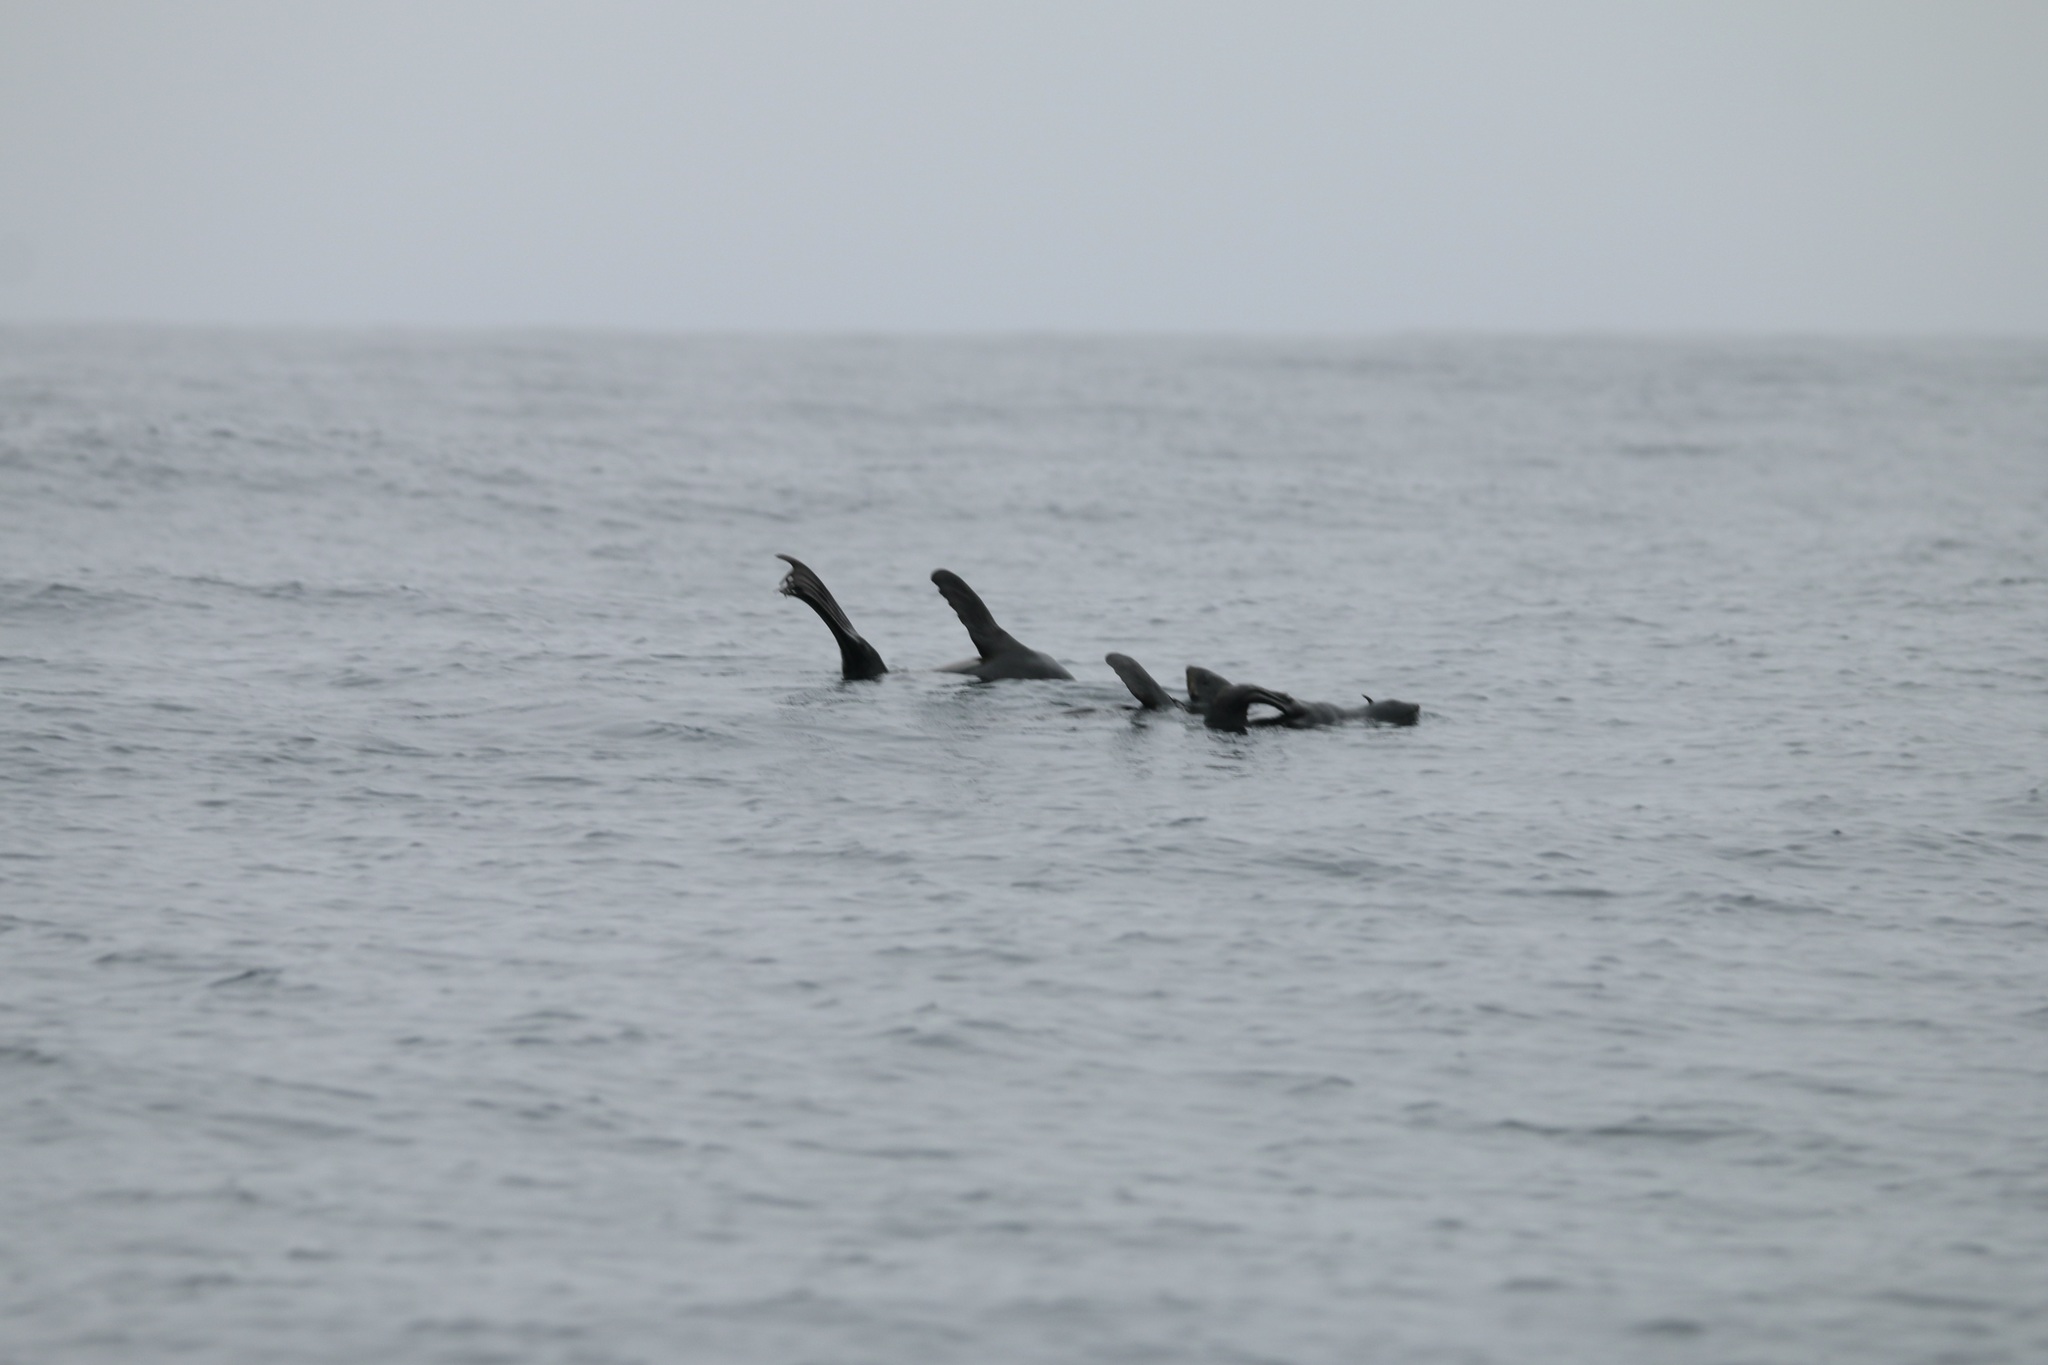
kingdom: Animalia
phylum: Chordata
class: Mammalia
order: Carnivora
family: Otariidae
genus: Callorhinus
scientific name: Callorhinus ursinus
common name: Northern fur seal
